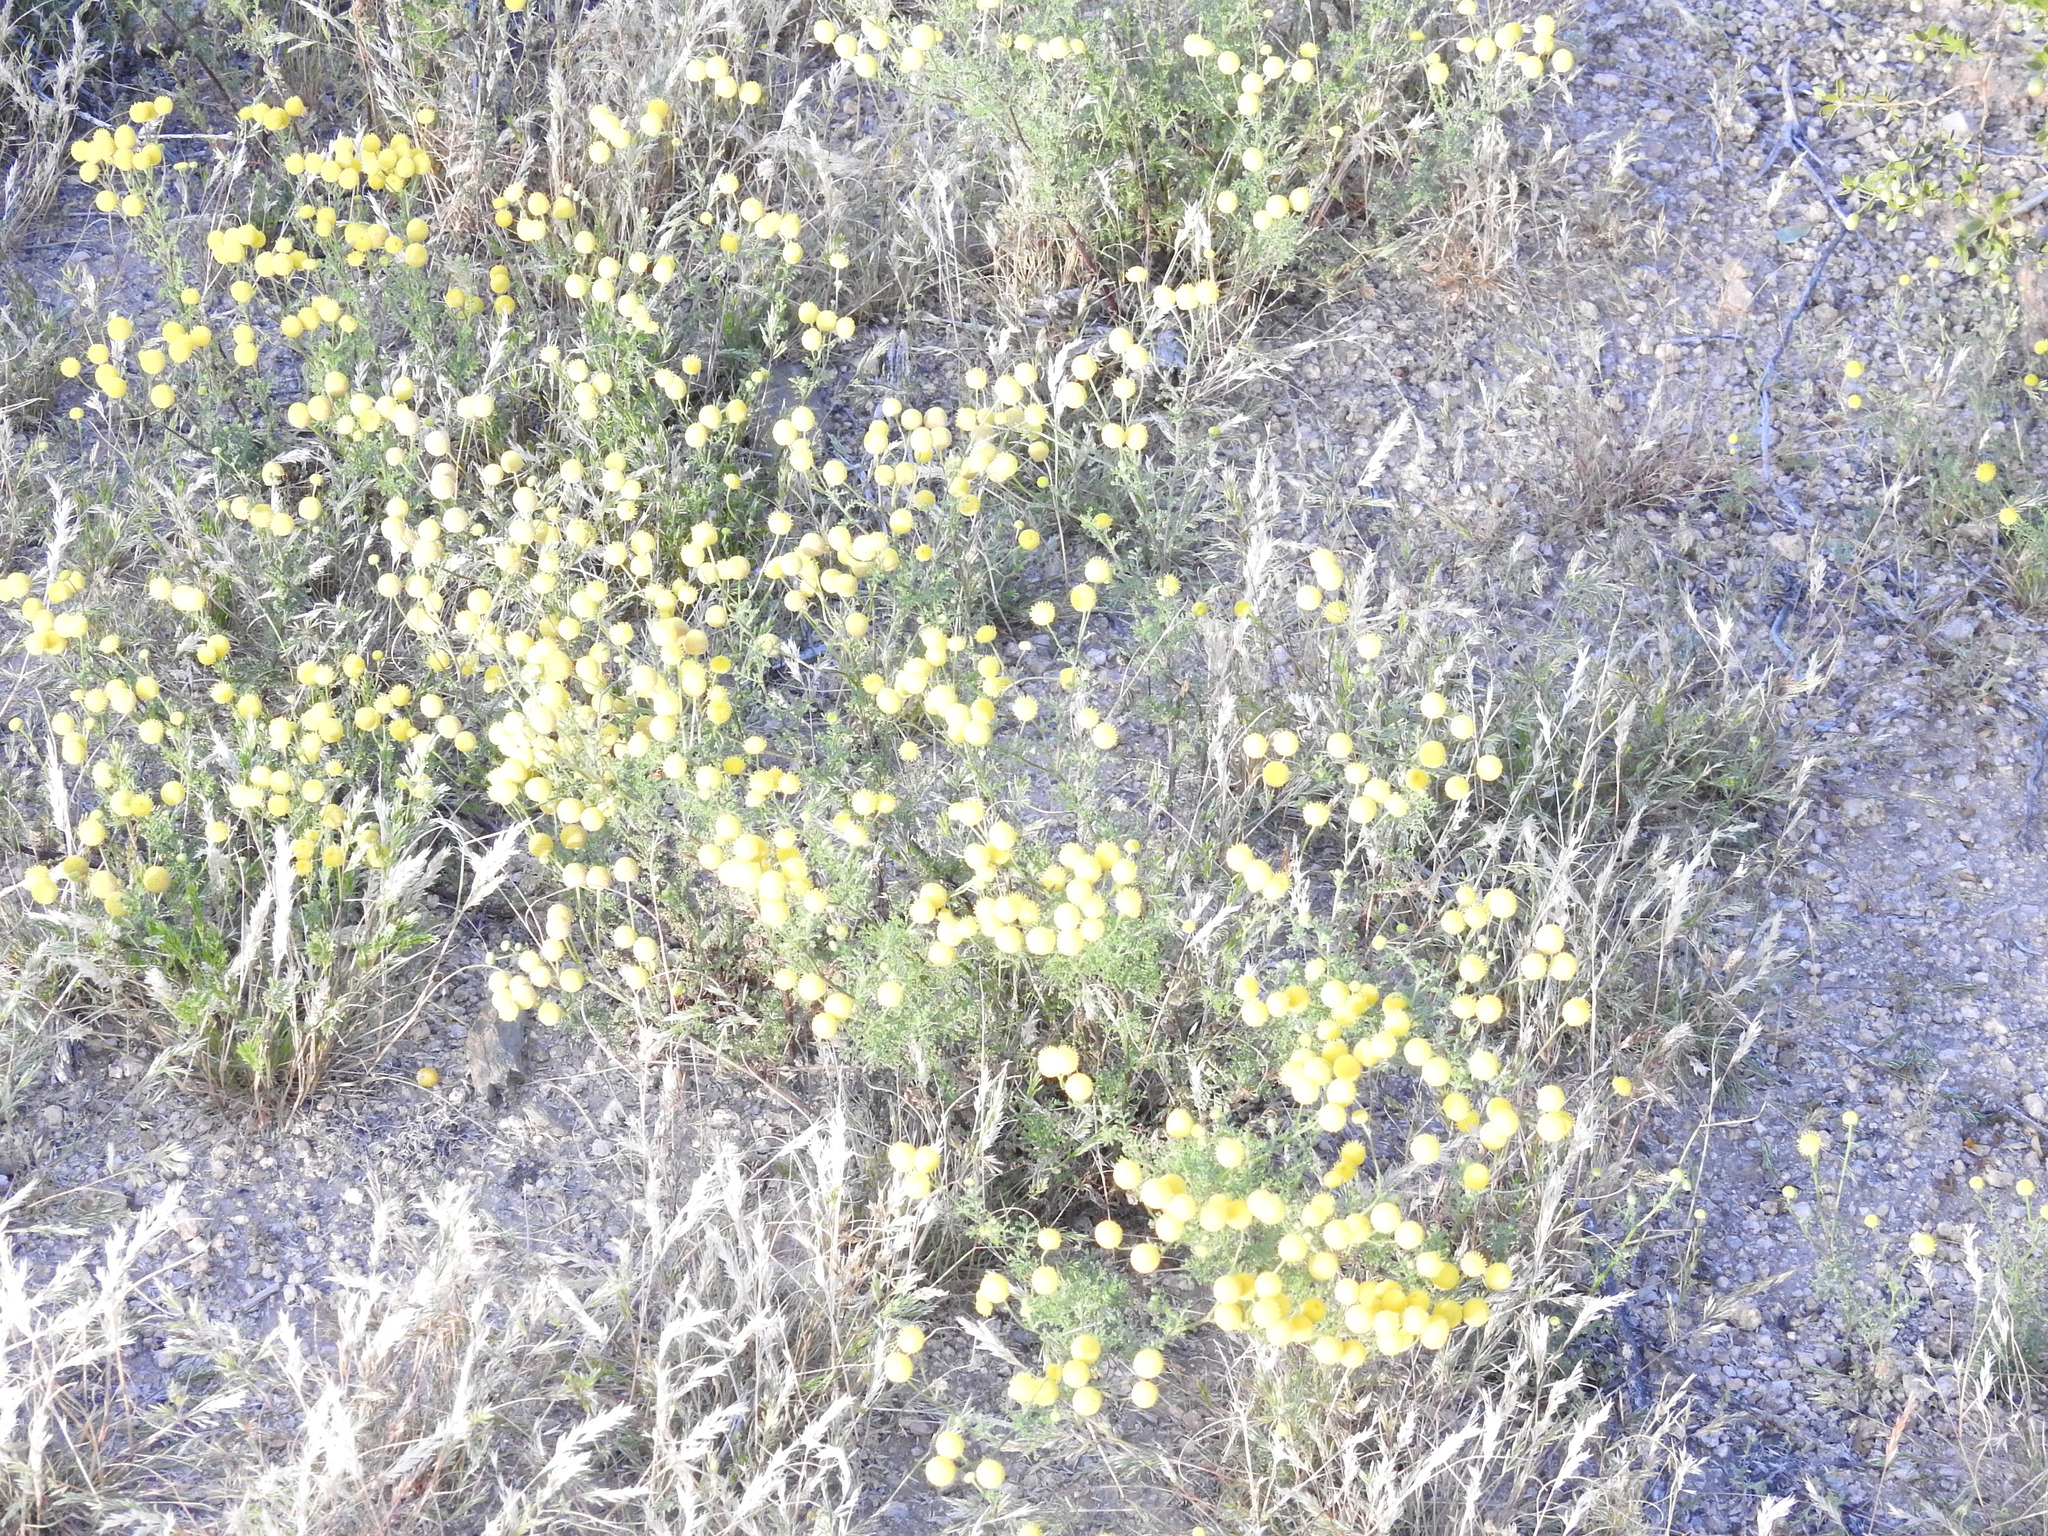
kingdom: Plantae
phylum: Tracheophyta
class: Magnoliopsida
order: Asterales
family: Asteraceae
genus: Oncosiphon
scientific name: Oncosiphon pilulifer
